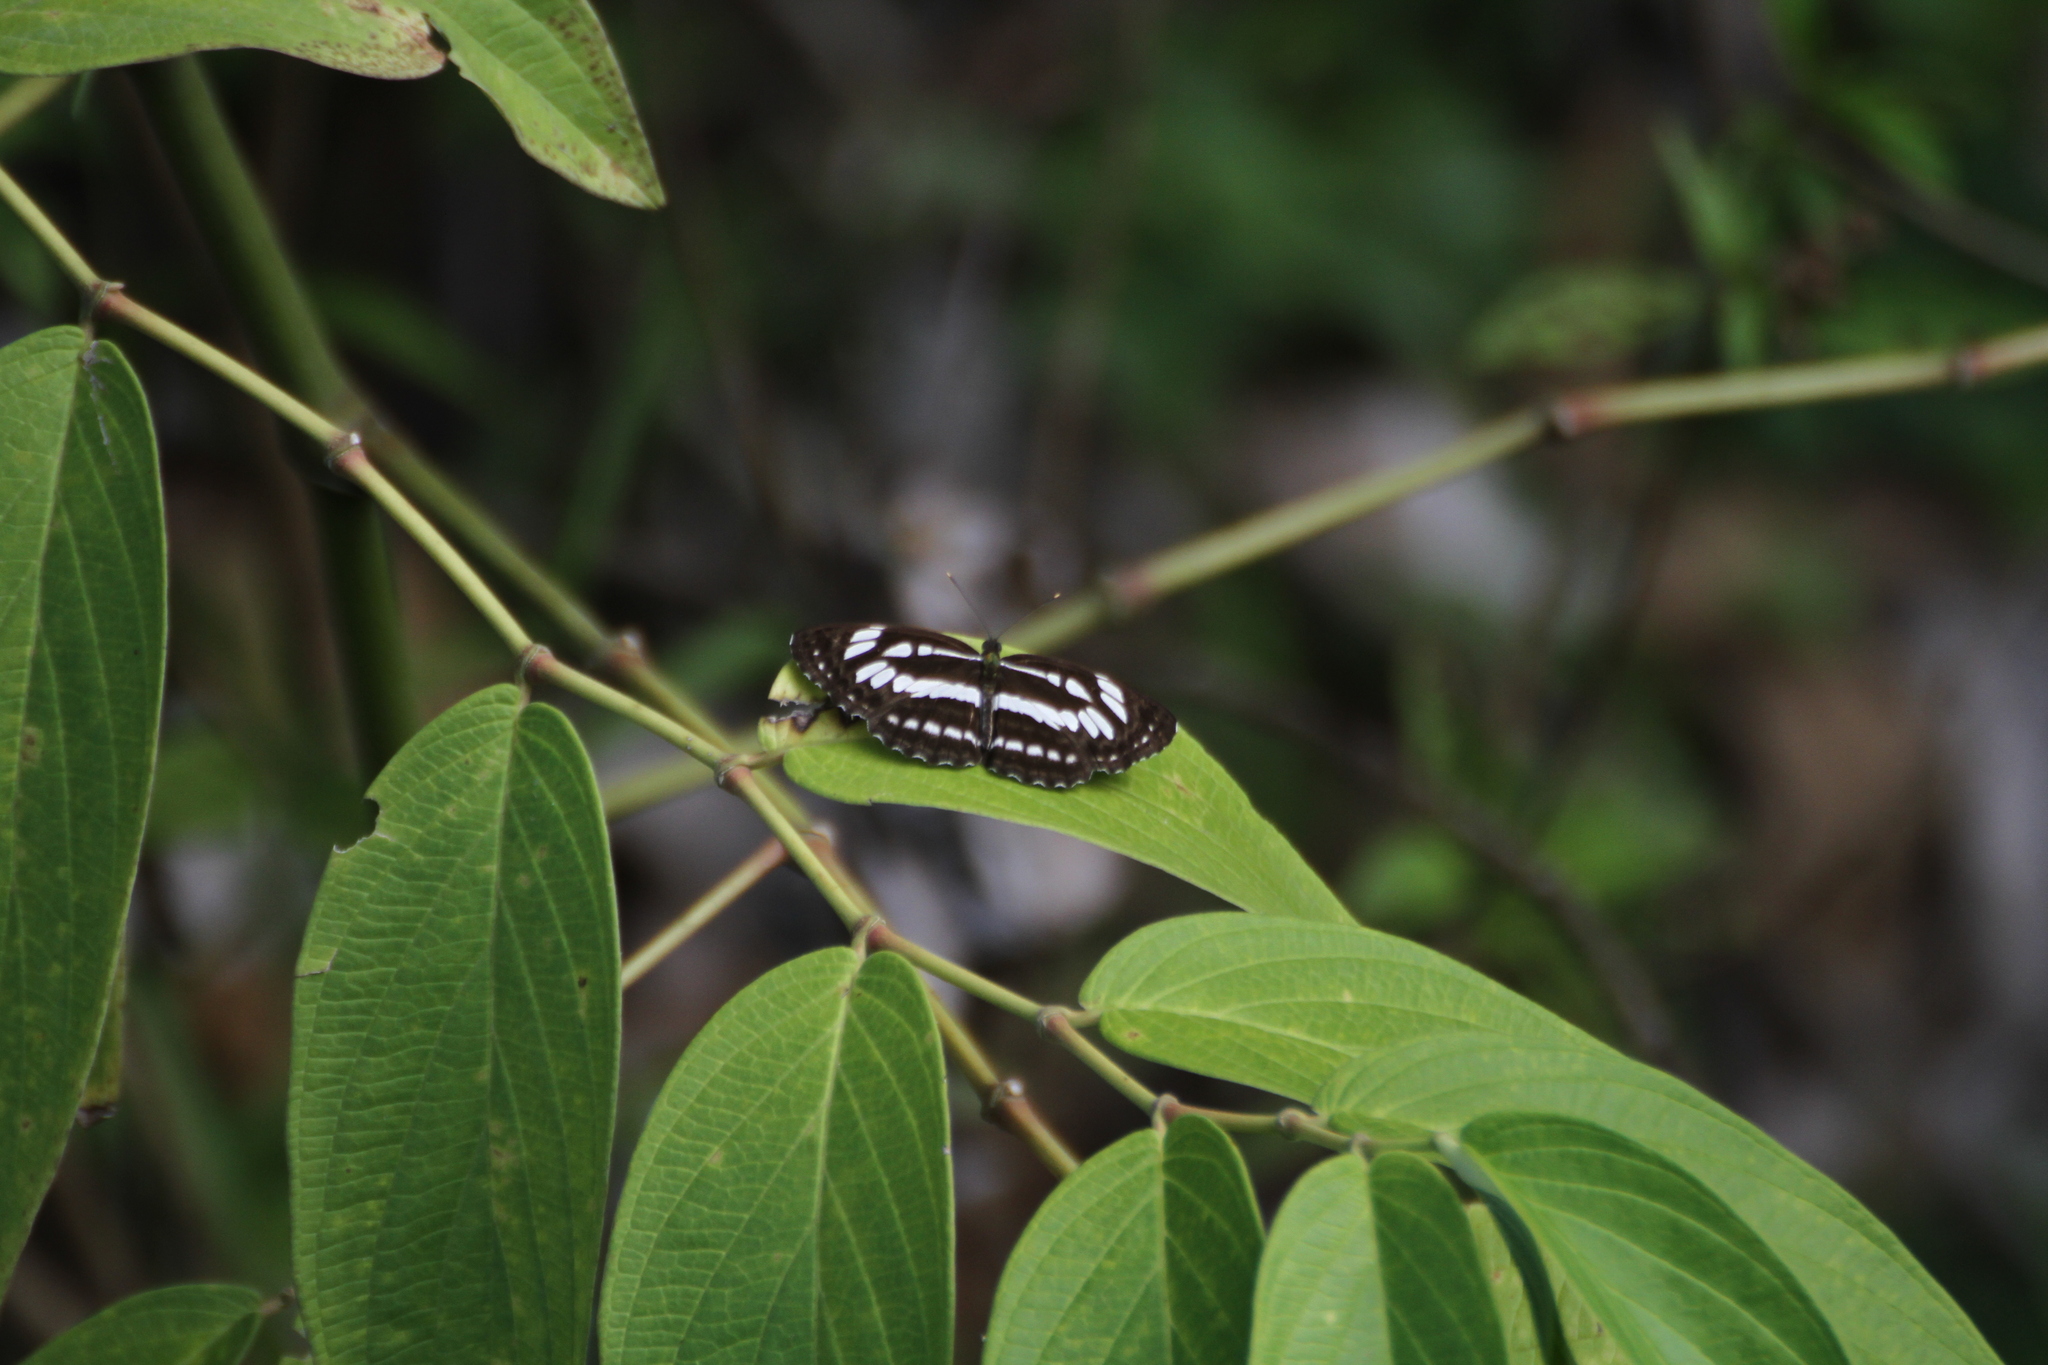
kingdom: Animalia
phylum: Arthropoda
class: Insecta
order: Lepidoptera
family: Nymphalidae
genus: Neptis
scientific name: Neptis hylas
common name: Common sailer
